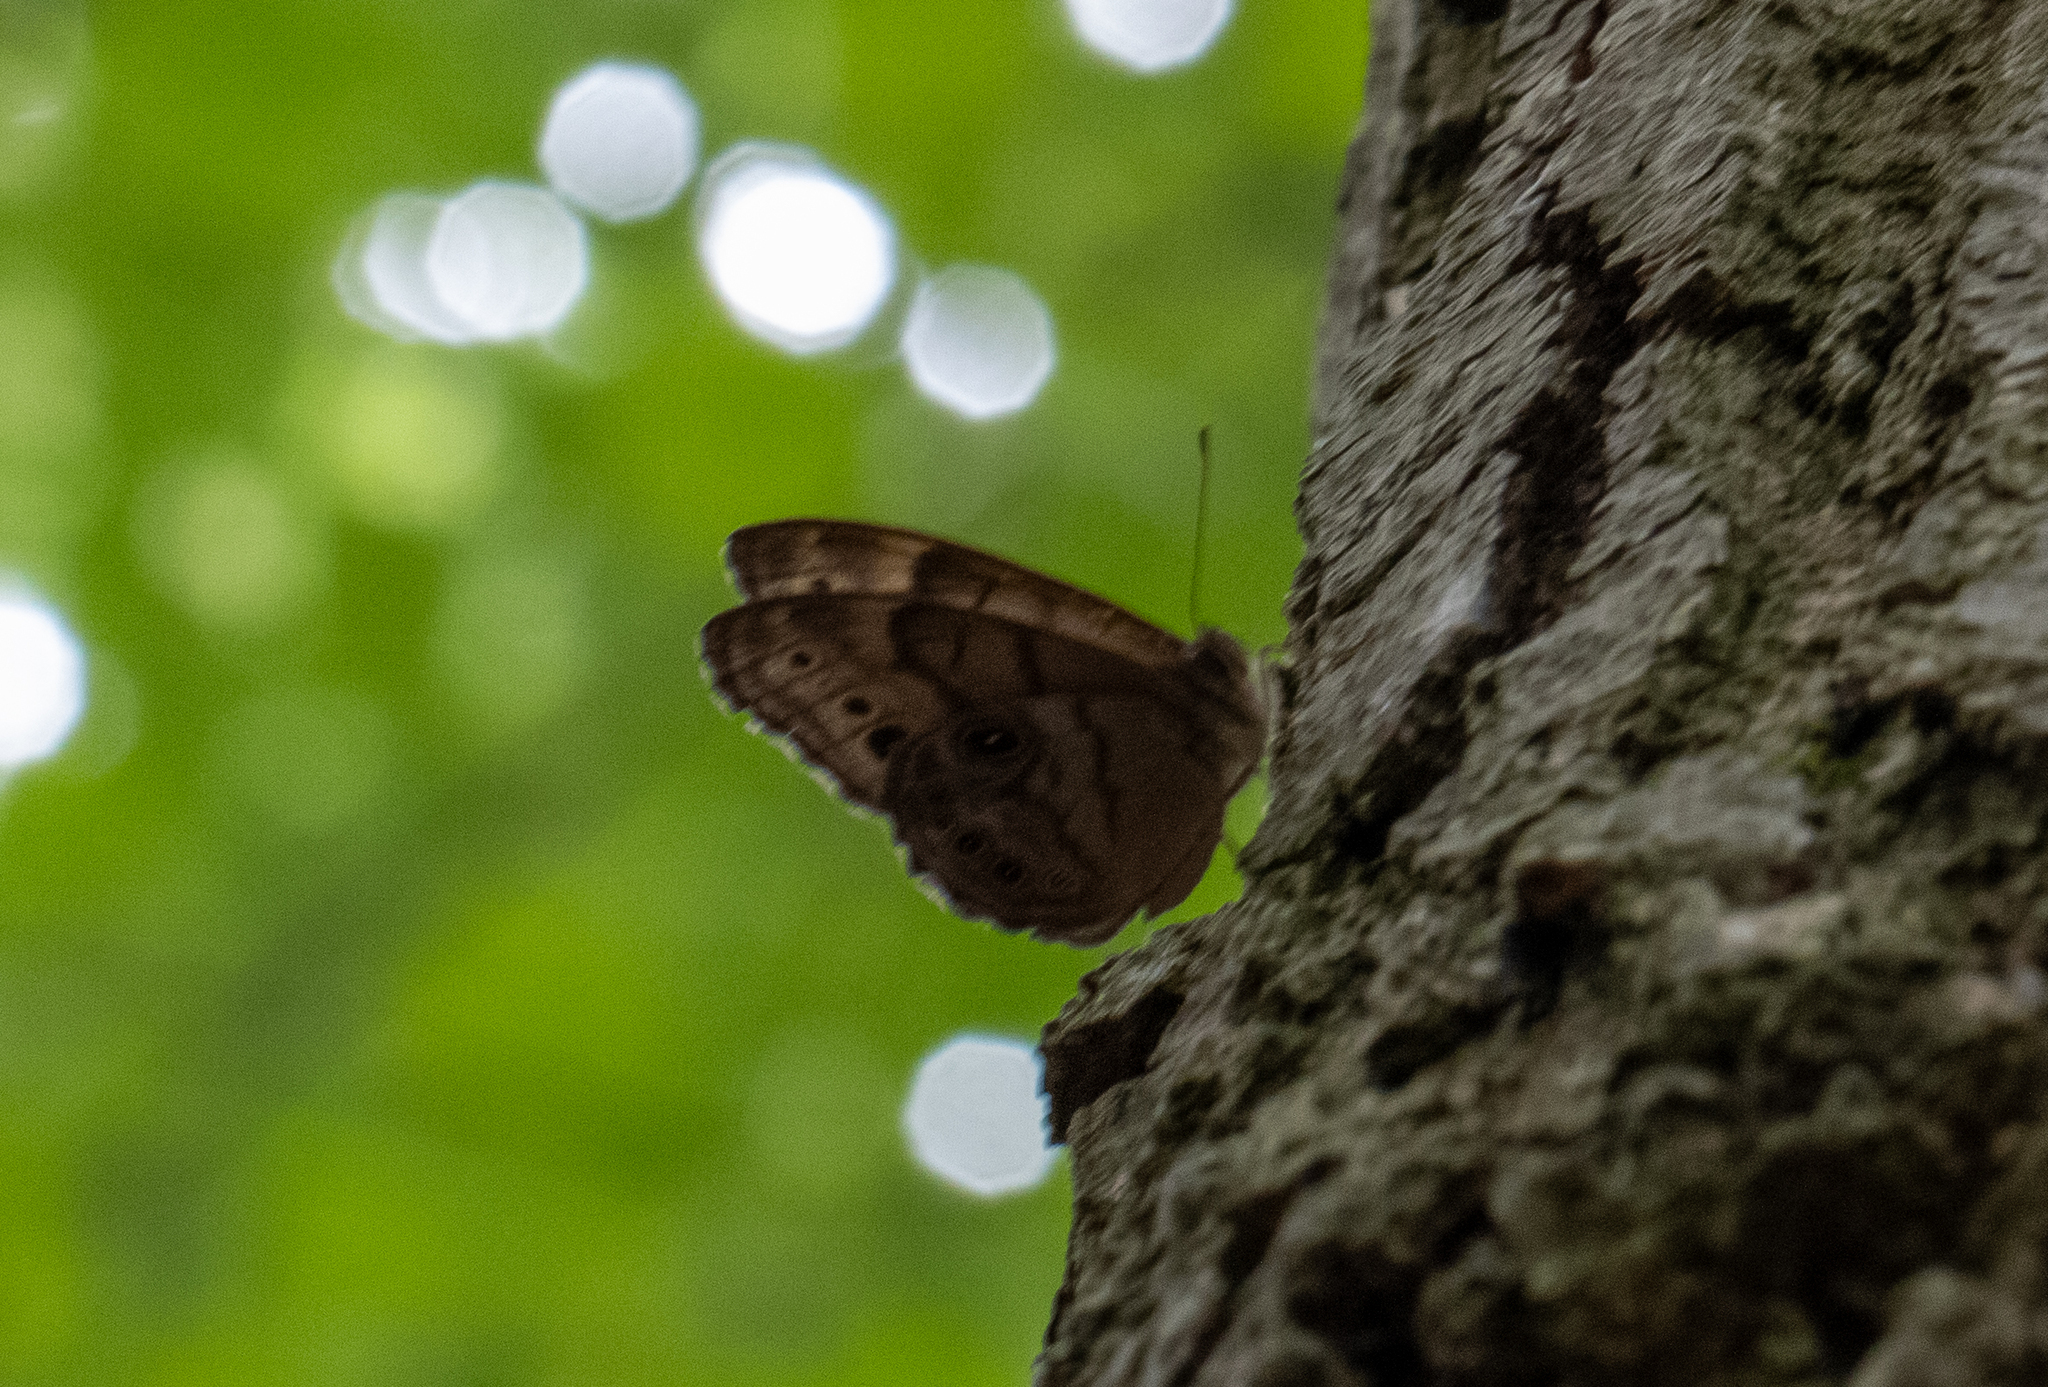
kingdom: Animalia
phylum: Arthropoda
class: Insecta
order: Lepidoptera
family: Nymphalidae
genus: Lethe
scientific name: Lethe anthedon
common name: Northern pearly-eye
